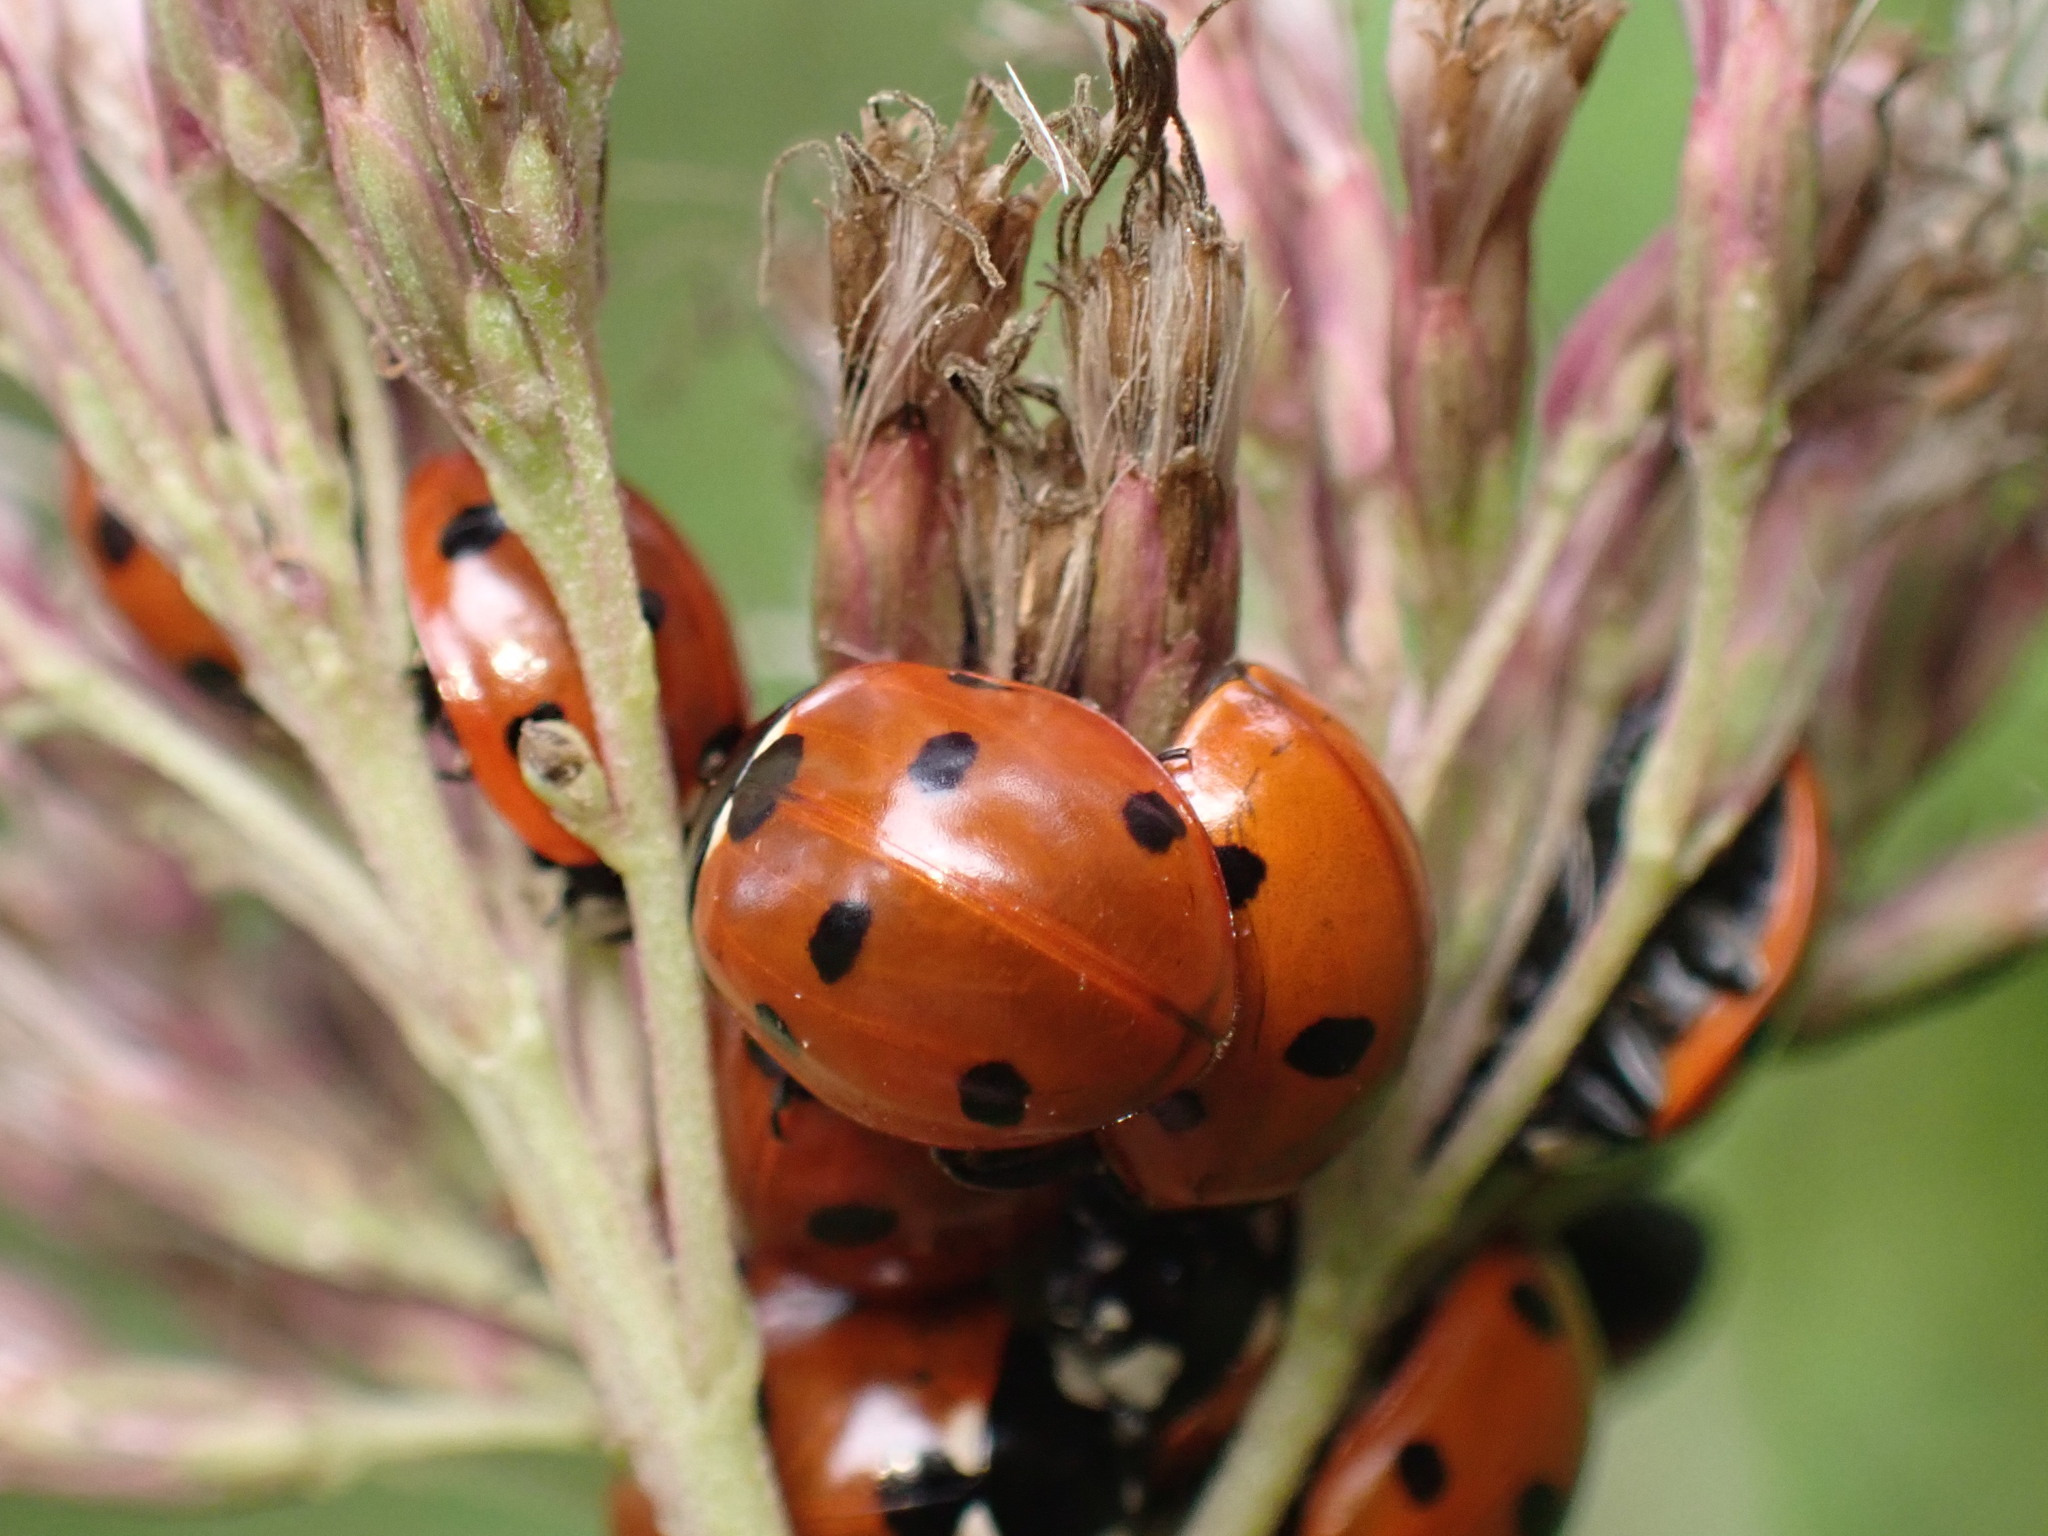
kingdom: Animalia
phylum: Arthropoda
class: Insecta
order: Coleoptera
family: Coccinellidae
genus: Coccinella
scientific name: Coccinella septempunctata
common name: Sevenspotted lady beetle
